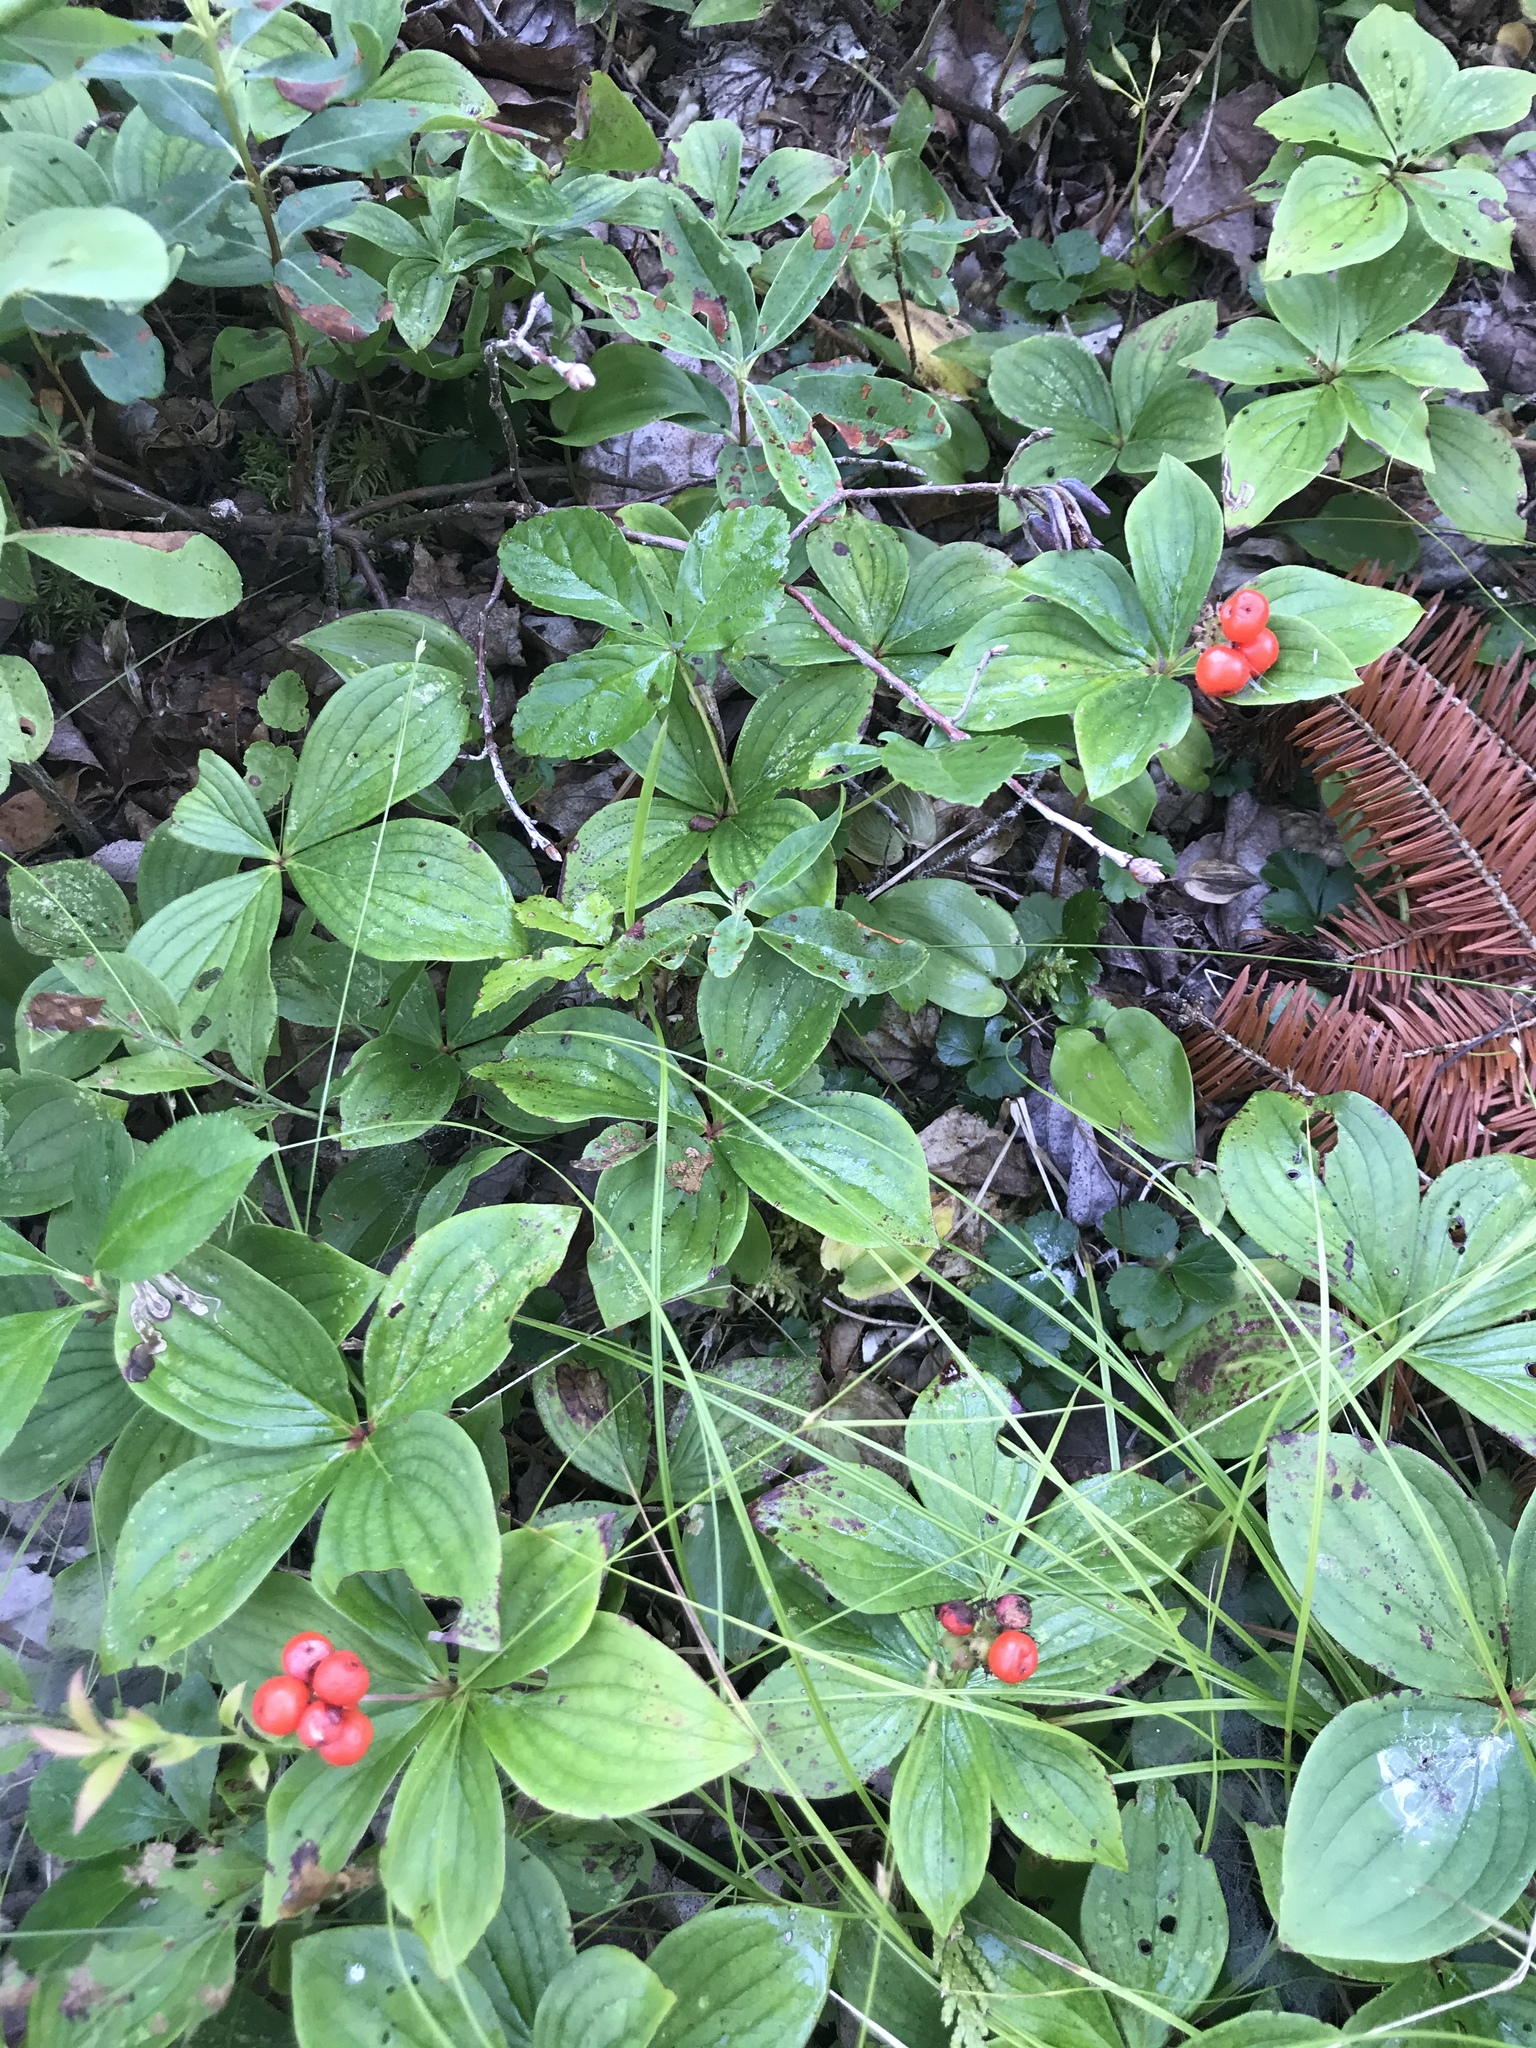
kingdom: Plantae
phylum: Tracheophyta
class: Magnoliopsida
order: Cornales
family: Cornaceae
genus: Cornus
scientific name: Cornus canadensis
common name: Creeping dogwood
